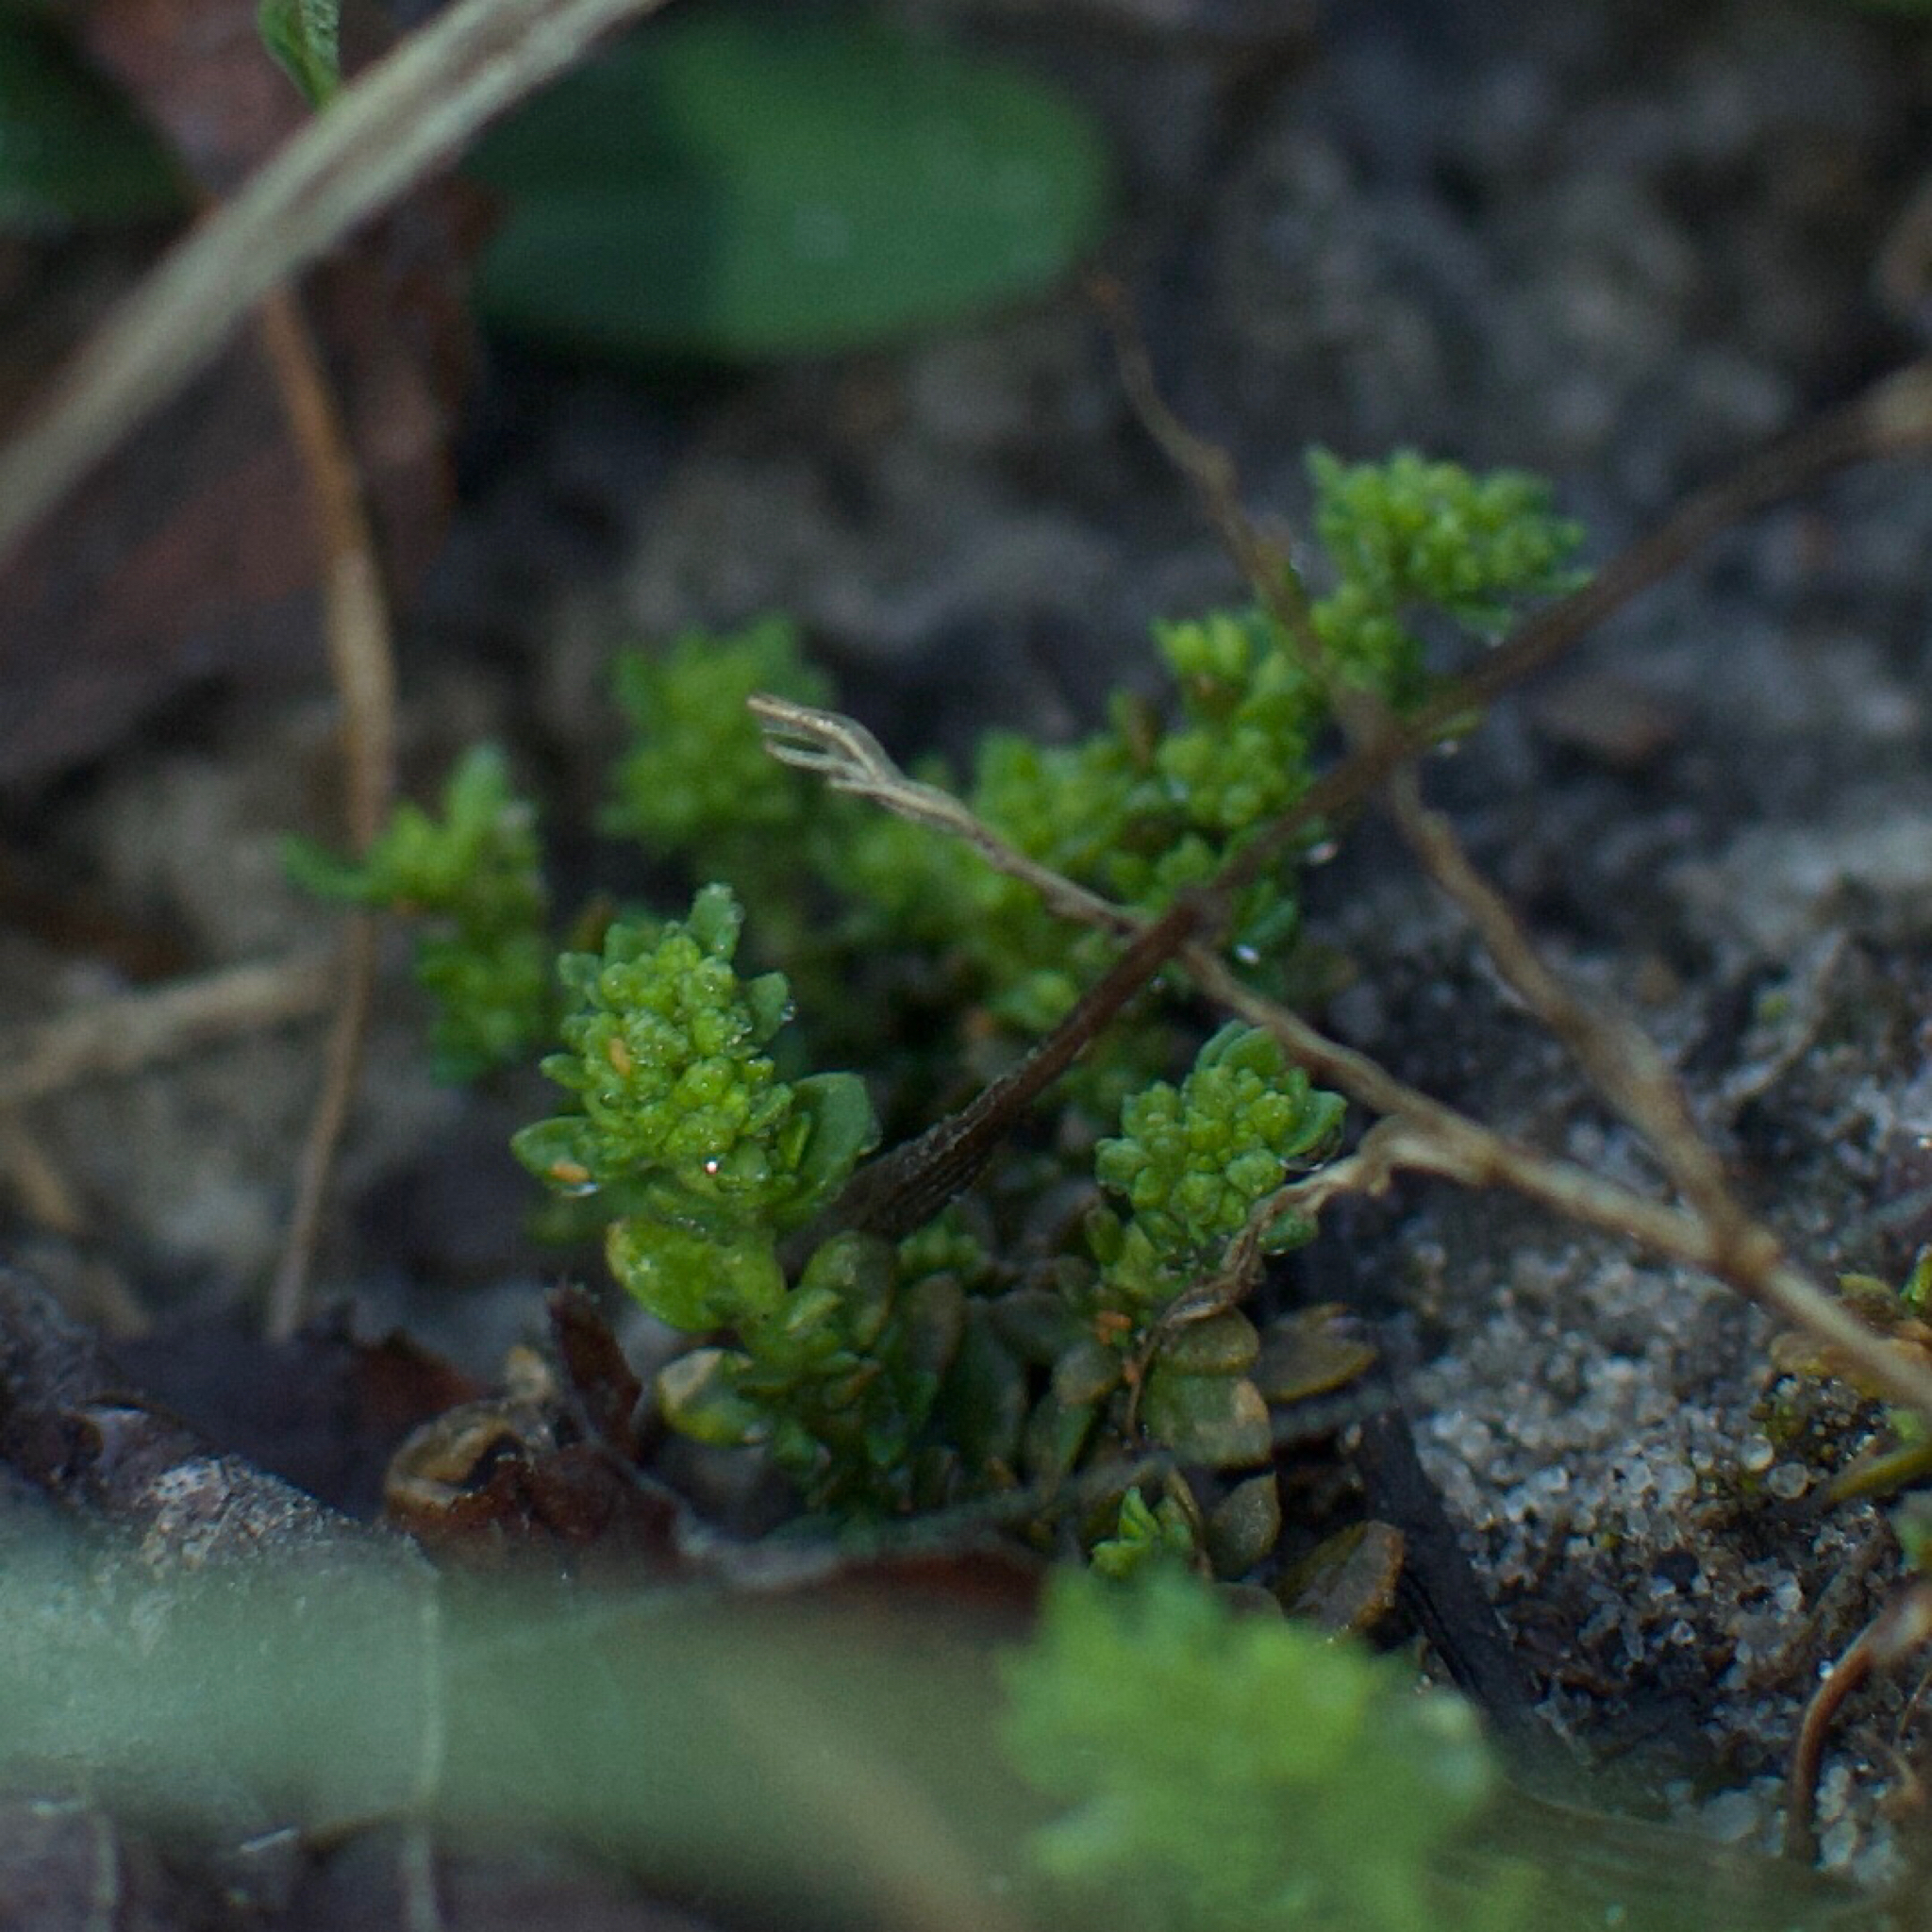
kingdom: Plantae
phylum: Tracheophyta
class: Magnoliopsida
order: Caryophyllales
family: Caryophyllaceae
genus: Herniaria
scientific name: Herniaria glabra
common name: Smooth rupturewort
